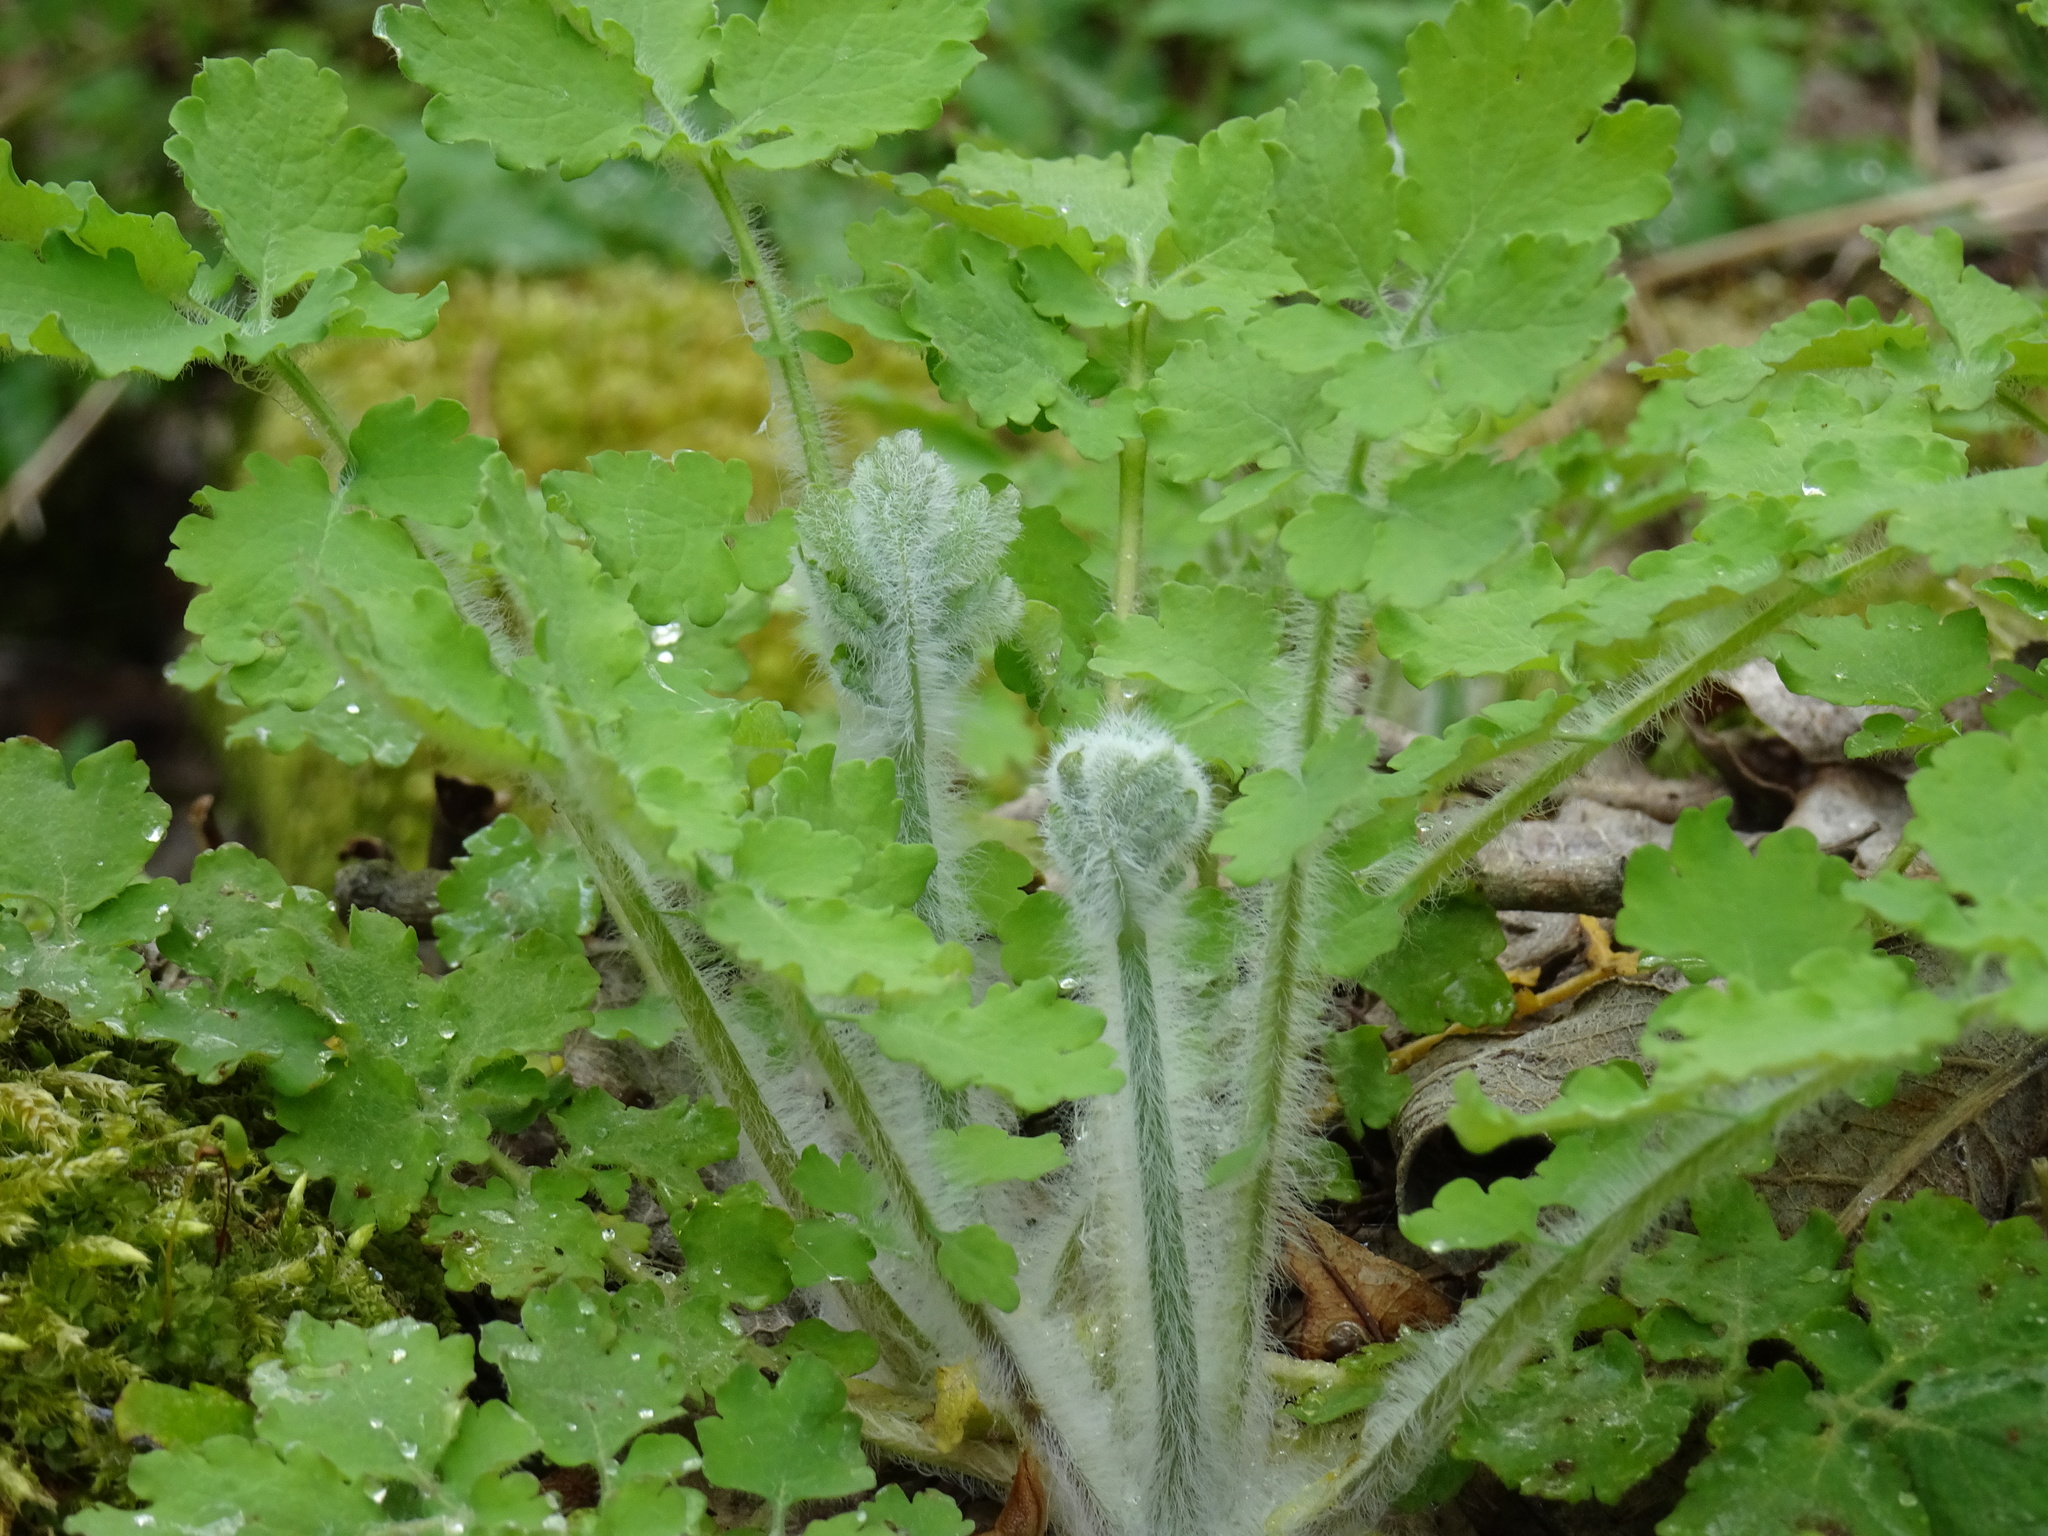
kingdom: Plantae
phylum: Tracheophyta
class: Magnoliopsida
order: Ranunculales
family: Papaveraceae
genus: Chelidonium
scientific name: Chelidonium majus
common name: Greater celandine
